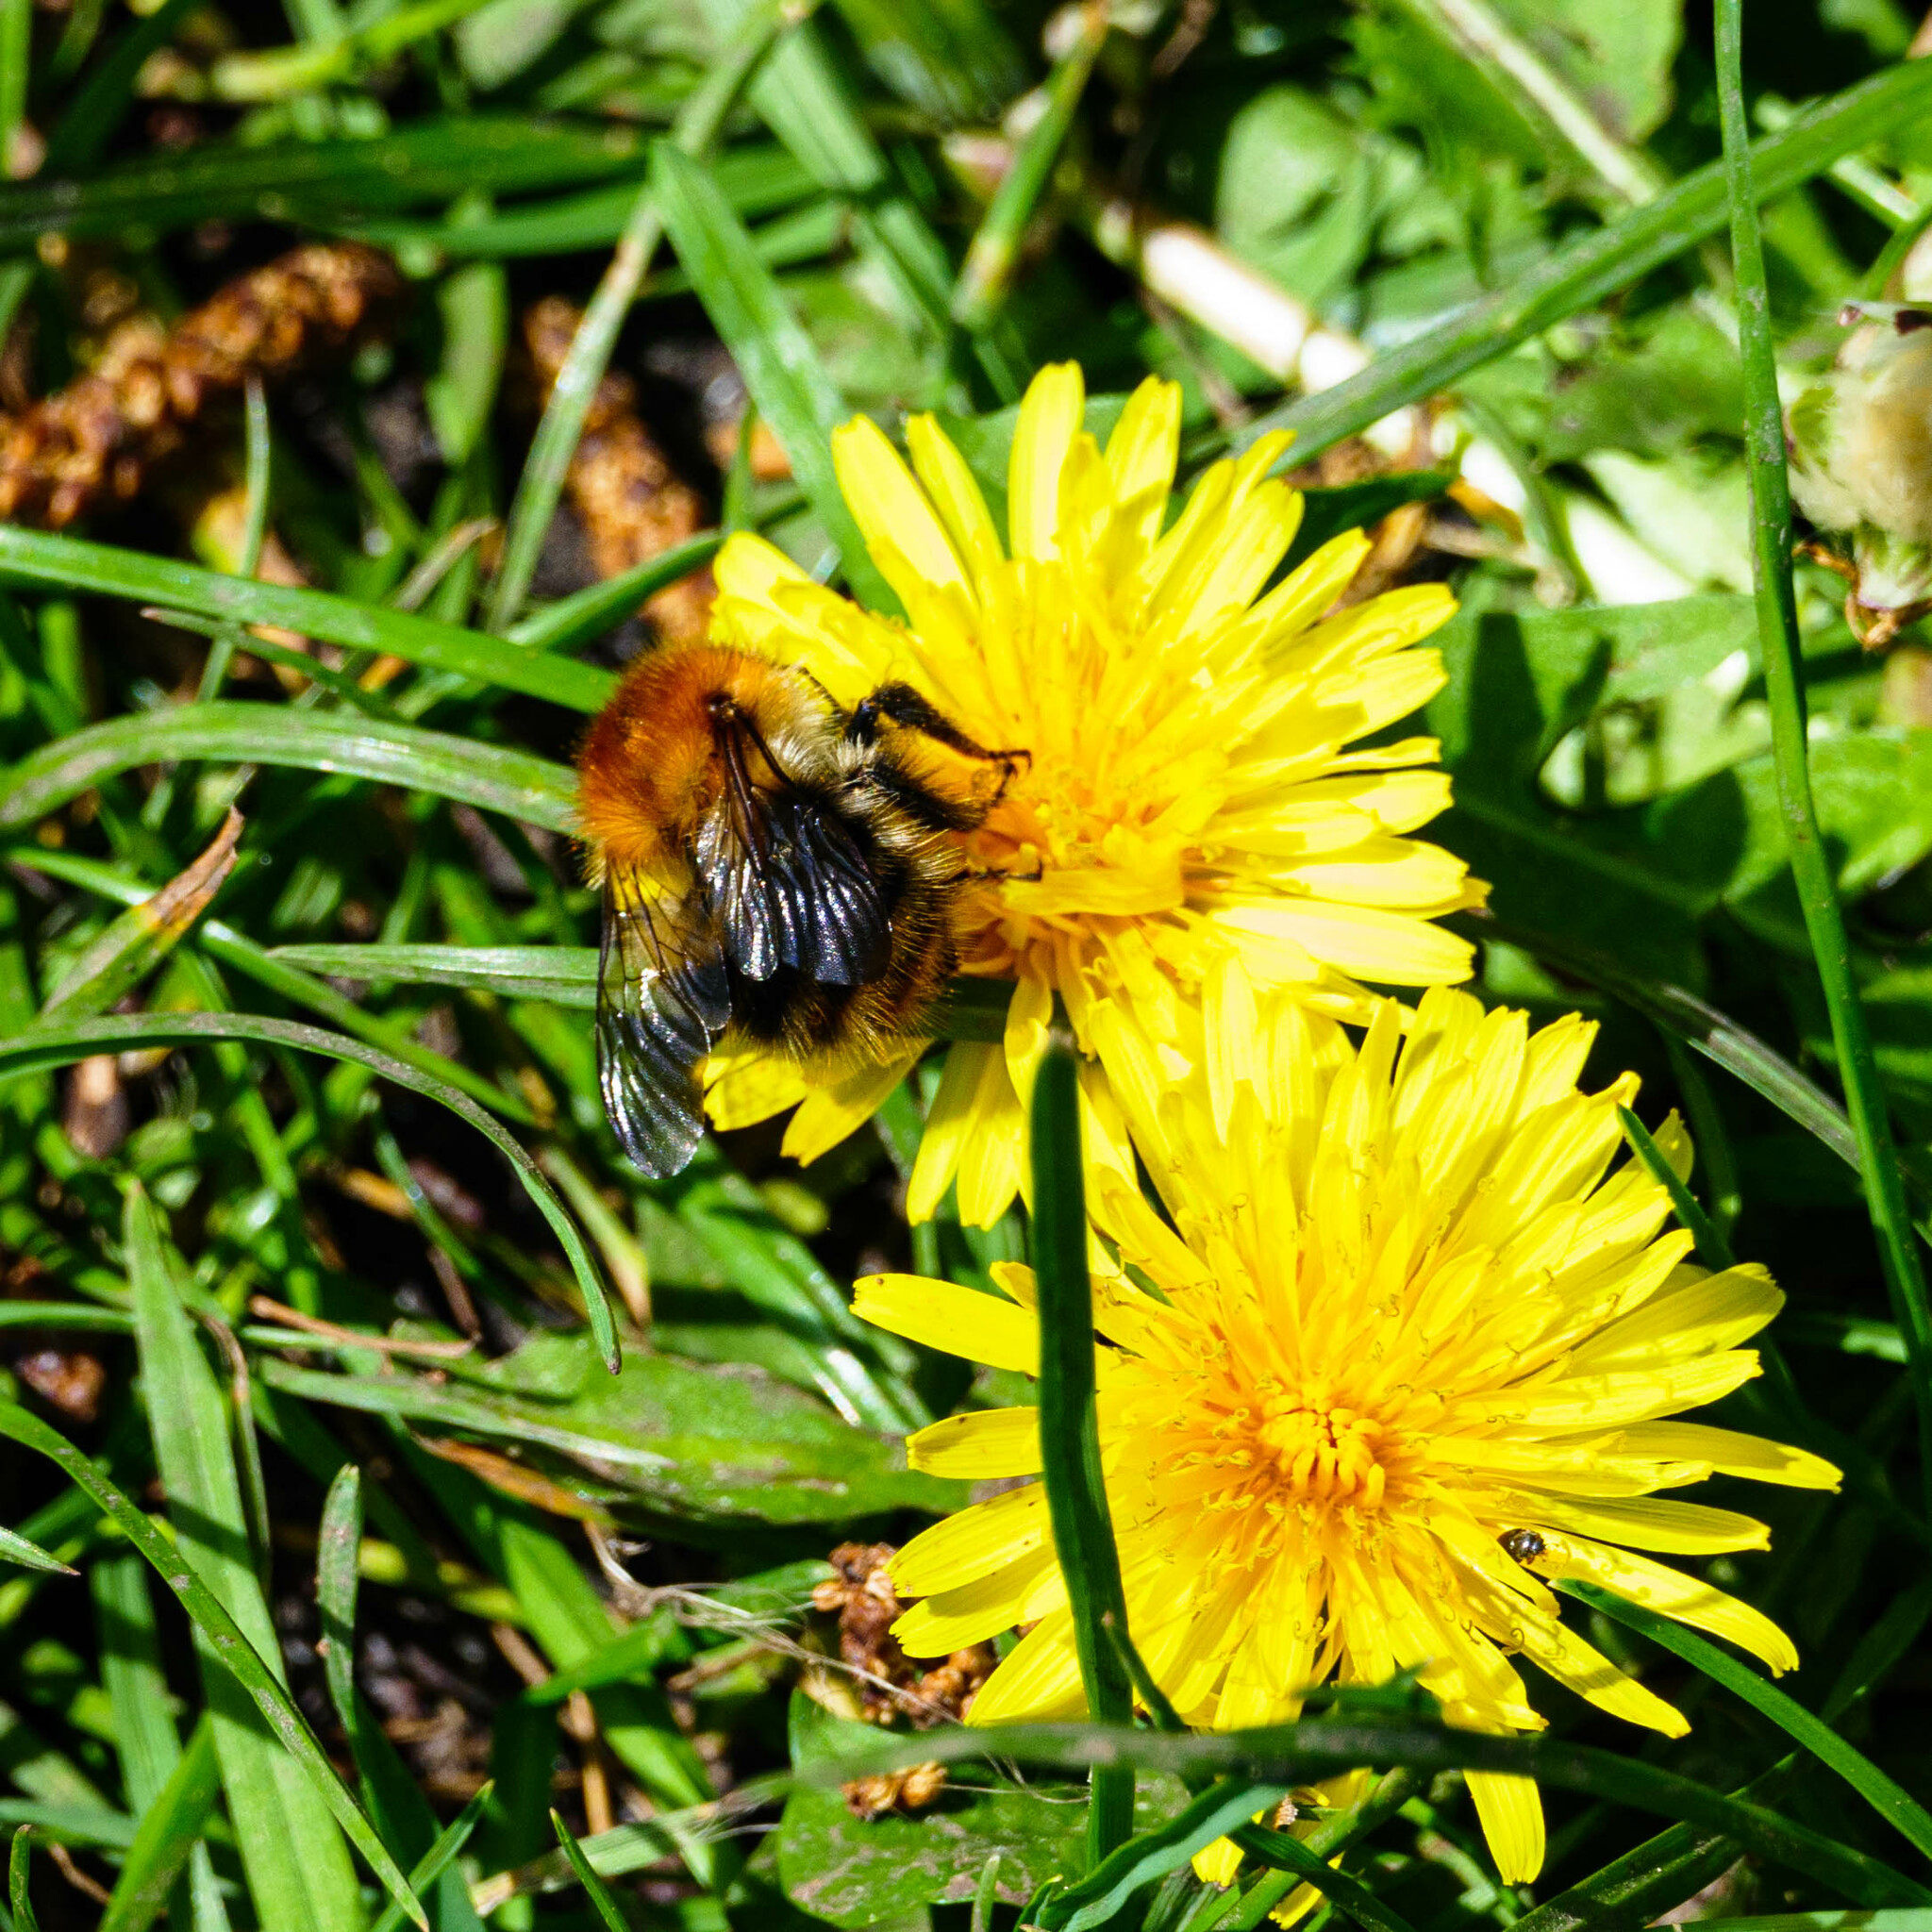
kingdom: Animalia
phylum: Arthropoda
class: Insecta
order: Hymenoptera
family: Apidae
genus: Bombus
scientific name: Bombus pascuorum
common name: Common carder bee
